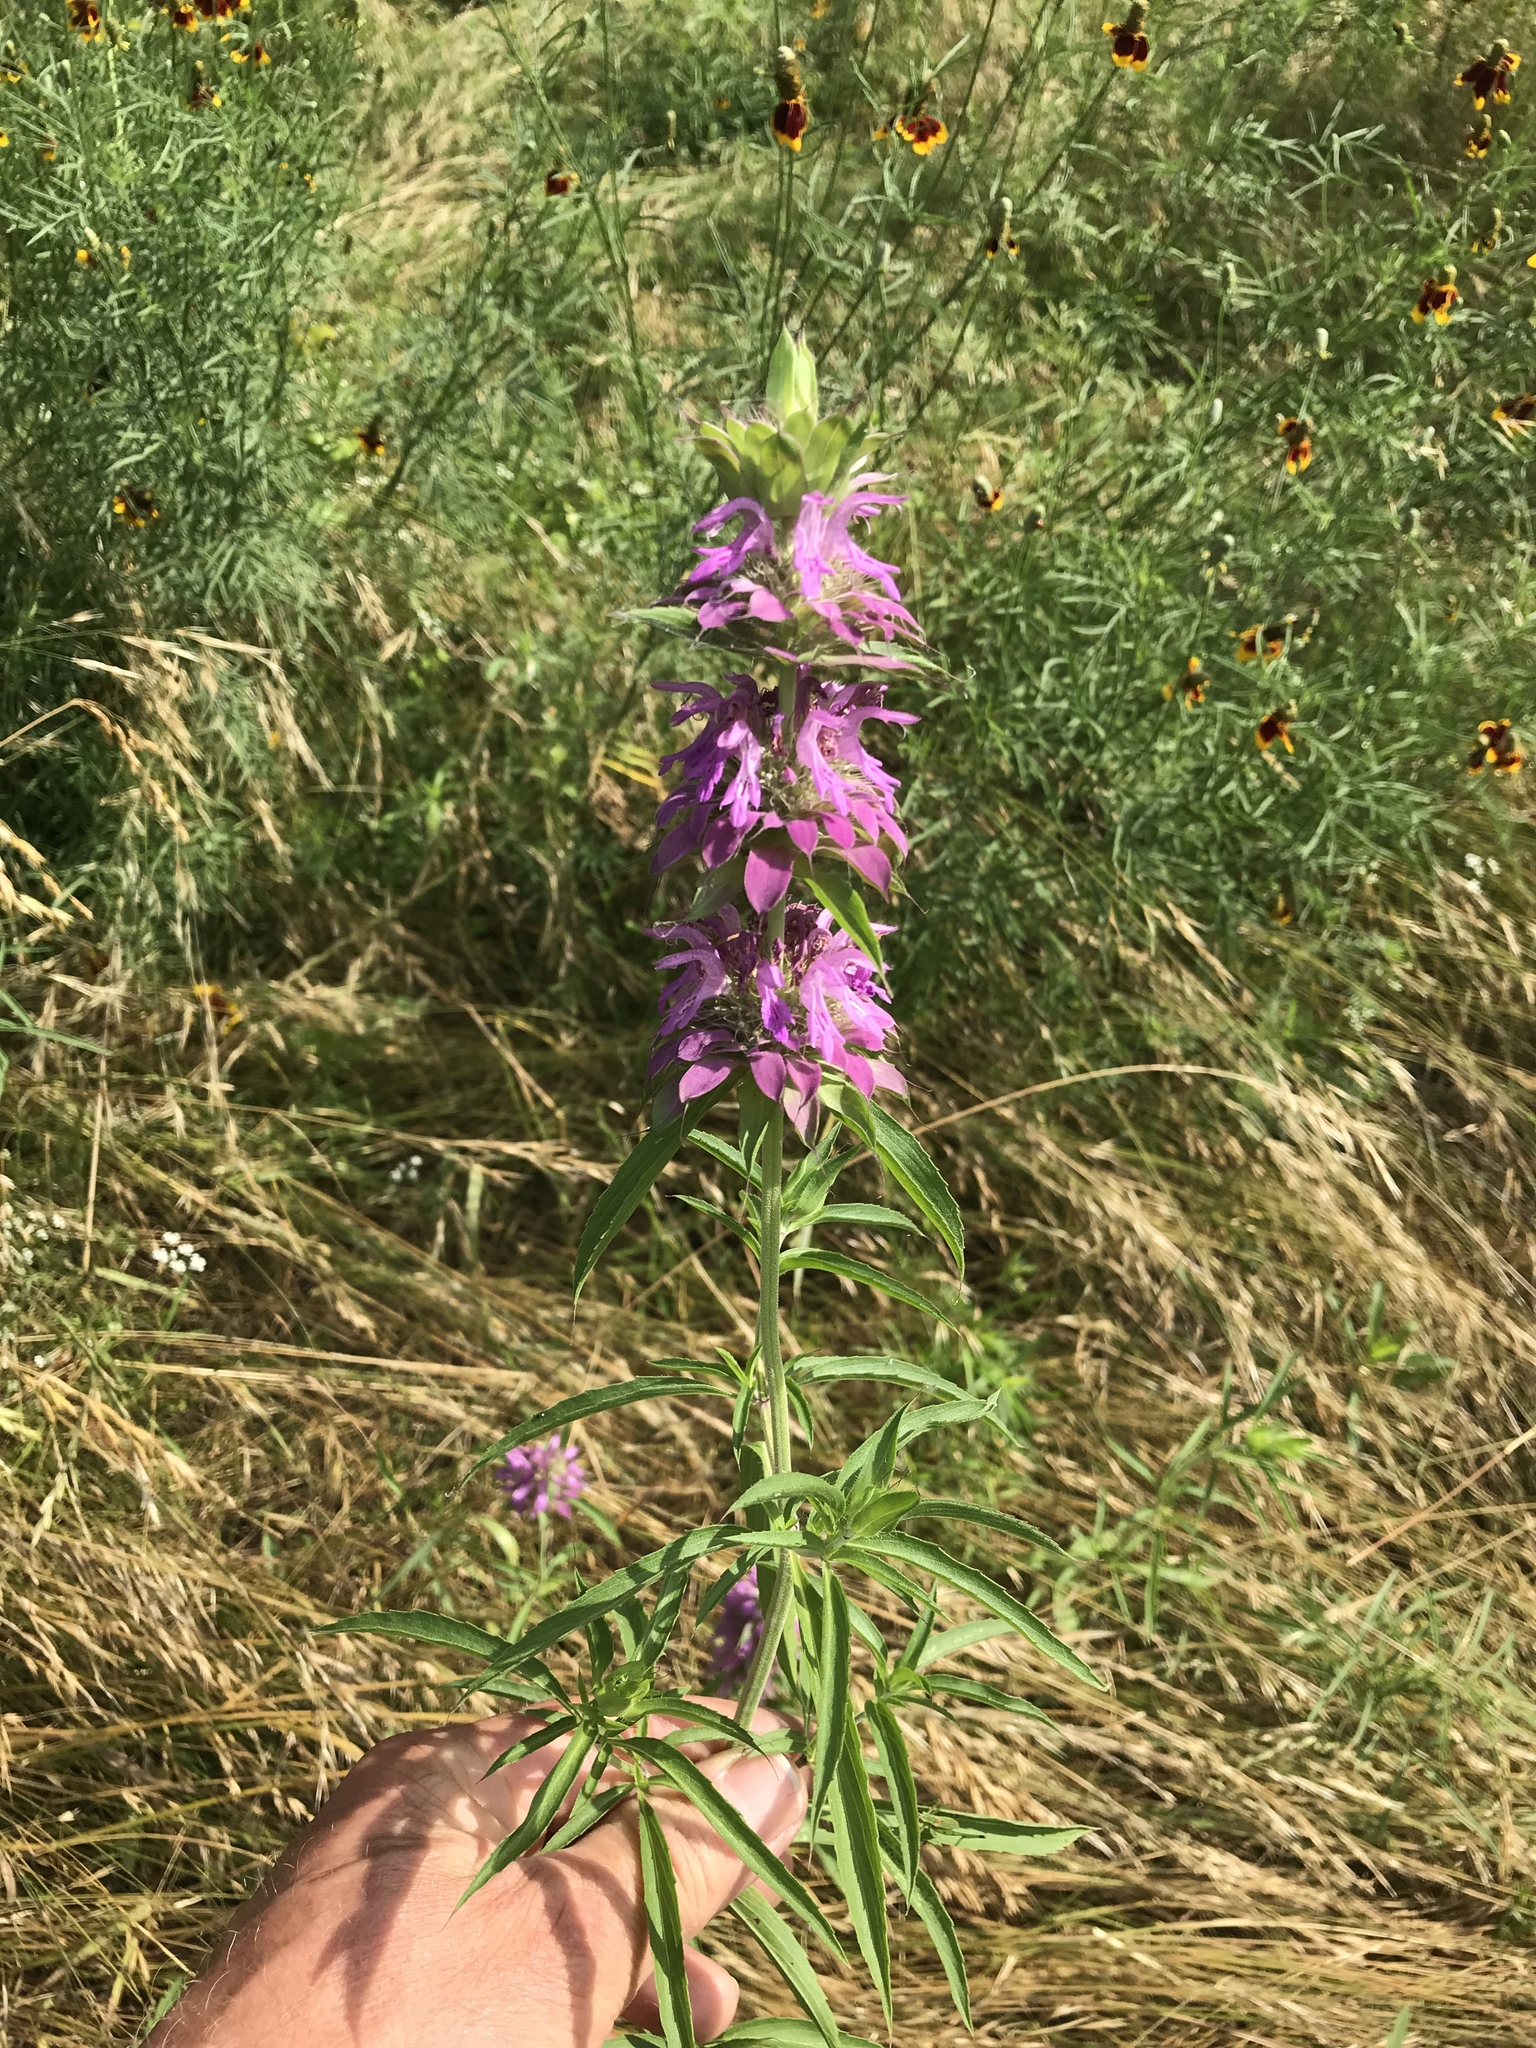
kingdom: Plantae
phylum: Tracheophyta
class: Magnoliopsida
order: Lamiales
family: Lamiaceae
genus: Monarda
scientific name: Monarda citriodora
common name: Lemon beebalm
